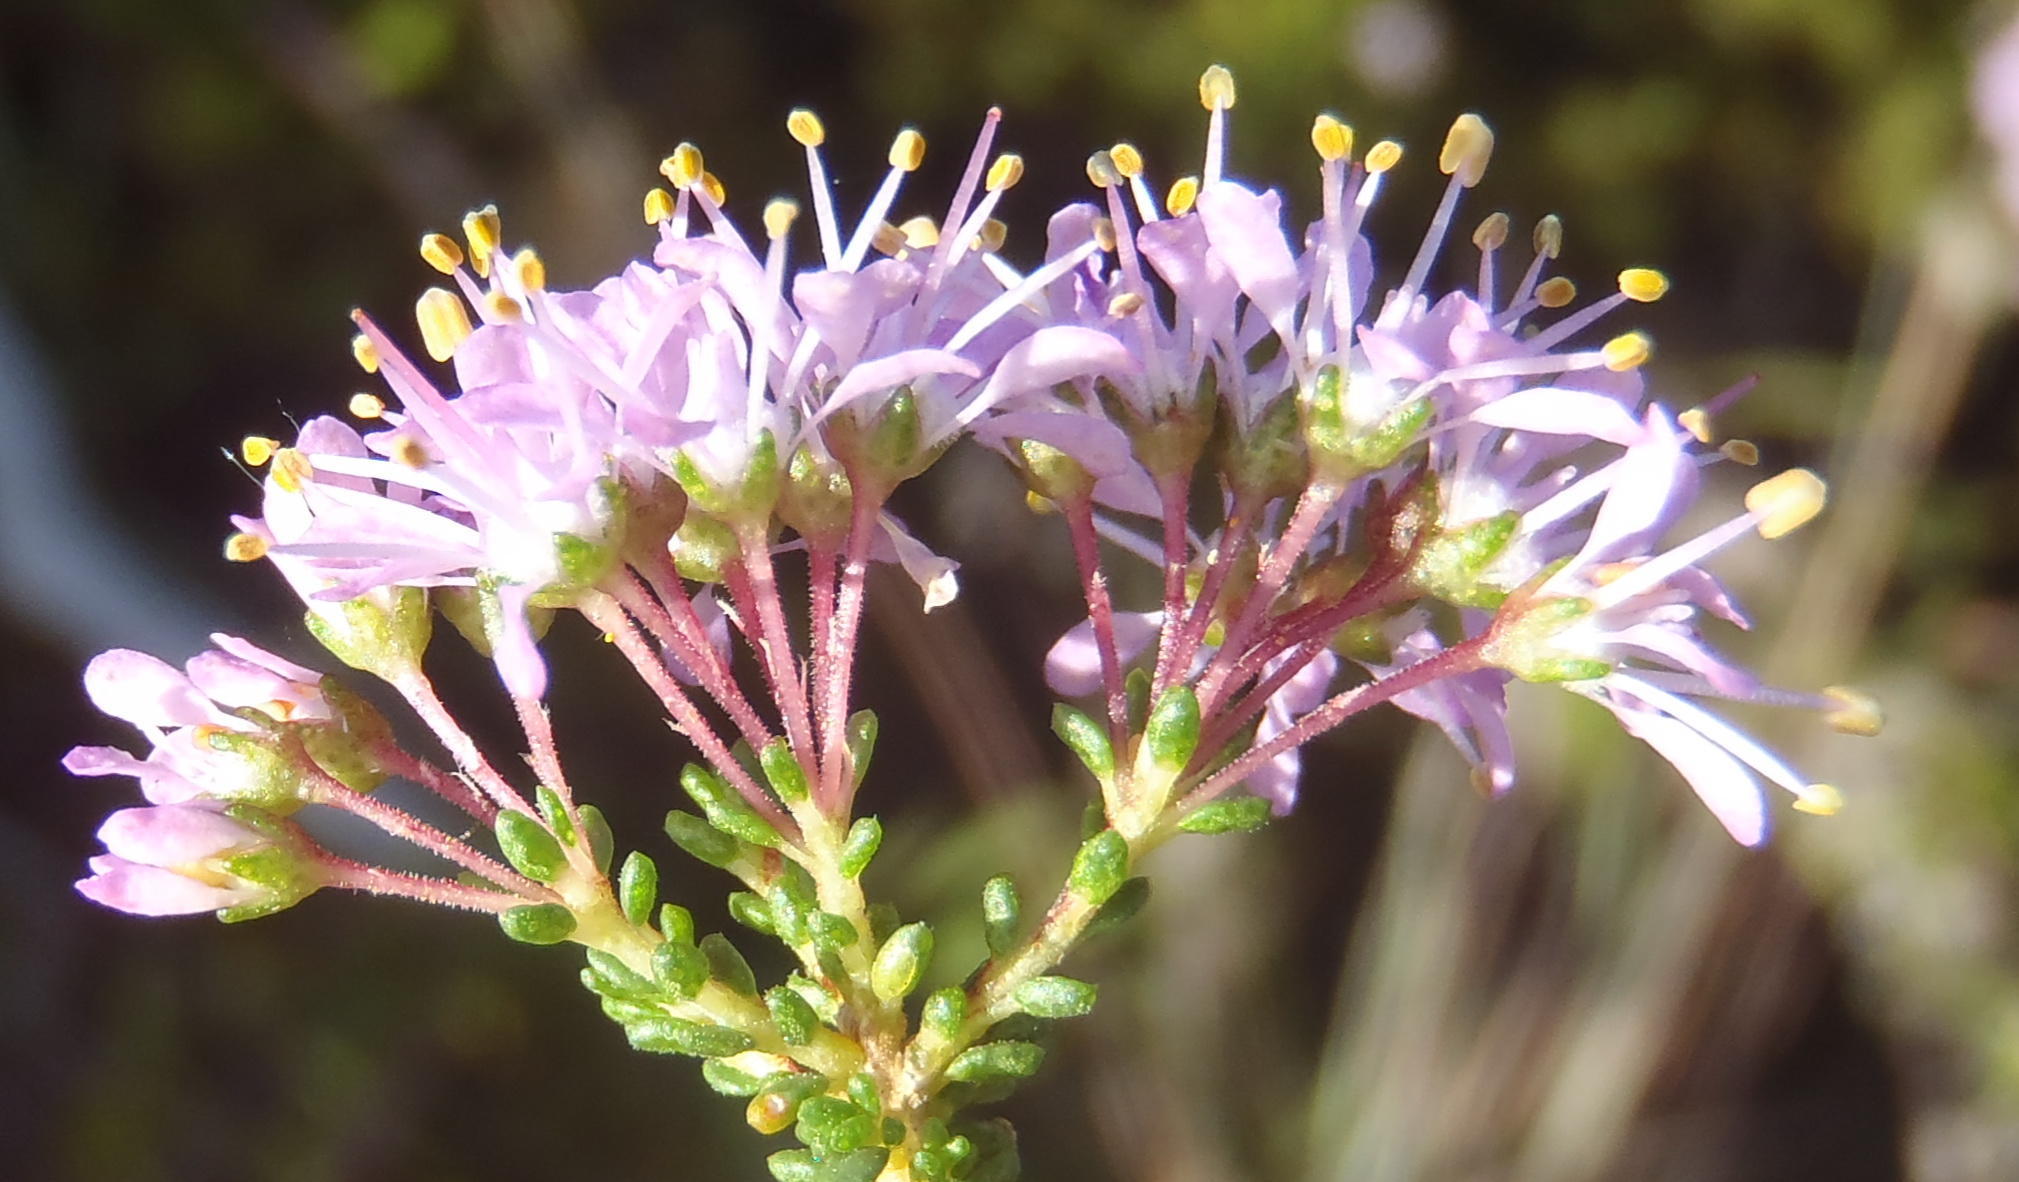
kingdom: Plantae
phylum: Tracheophyta
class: Magnoliopsida
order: Sapindales
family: Rutaceae
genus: Agathosma
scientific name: Agathosma capensis
